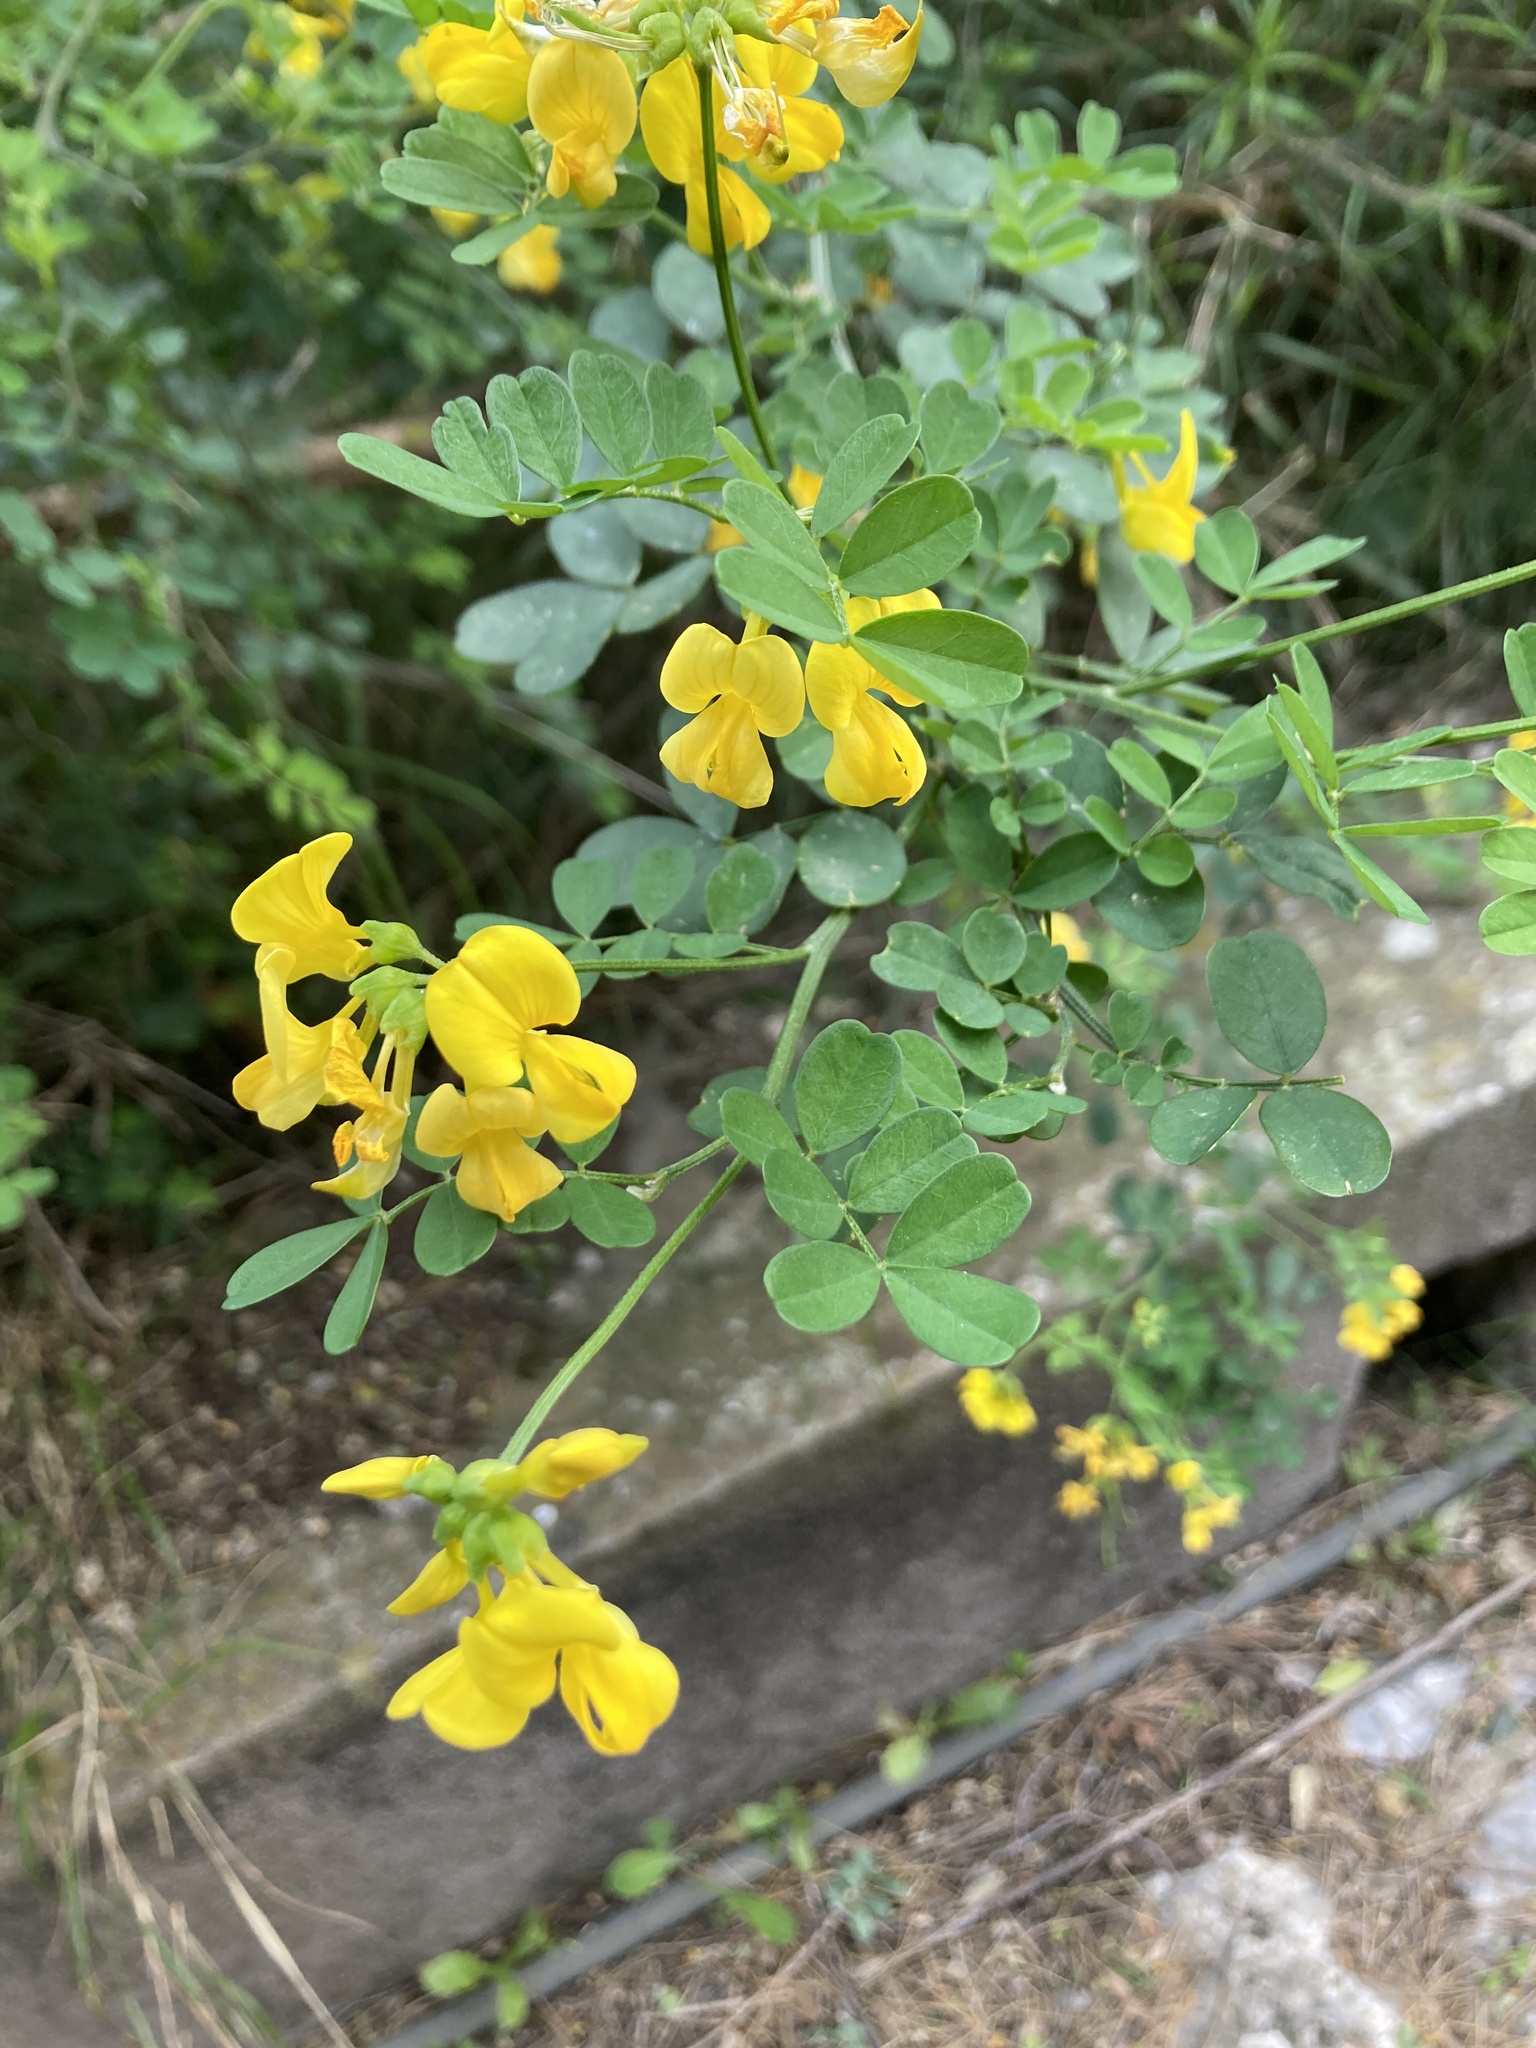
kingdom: Plantae
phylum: Tracheophyta
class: Magnoliopsida
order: Fabales
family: Fabaceae
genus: Hippocrepis
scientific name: Hippocrepis emerus
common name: Scorpion senna
